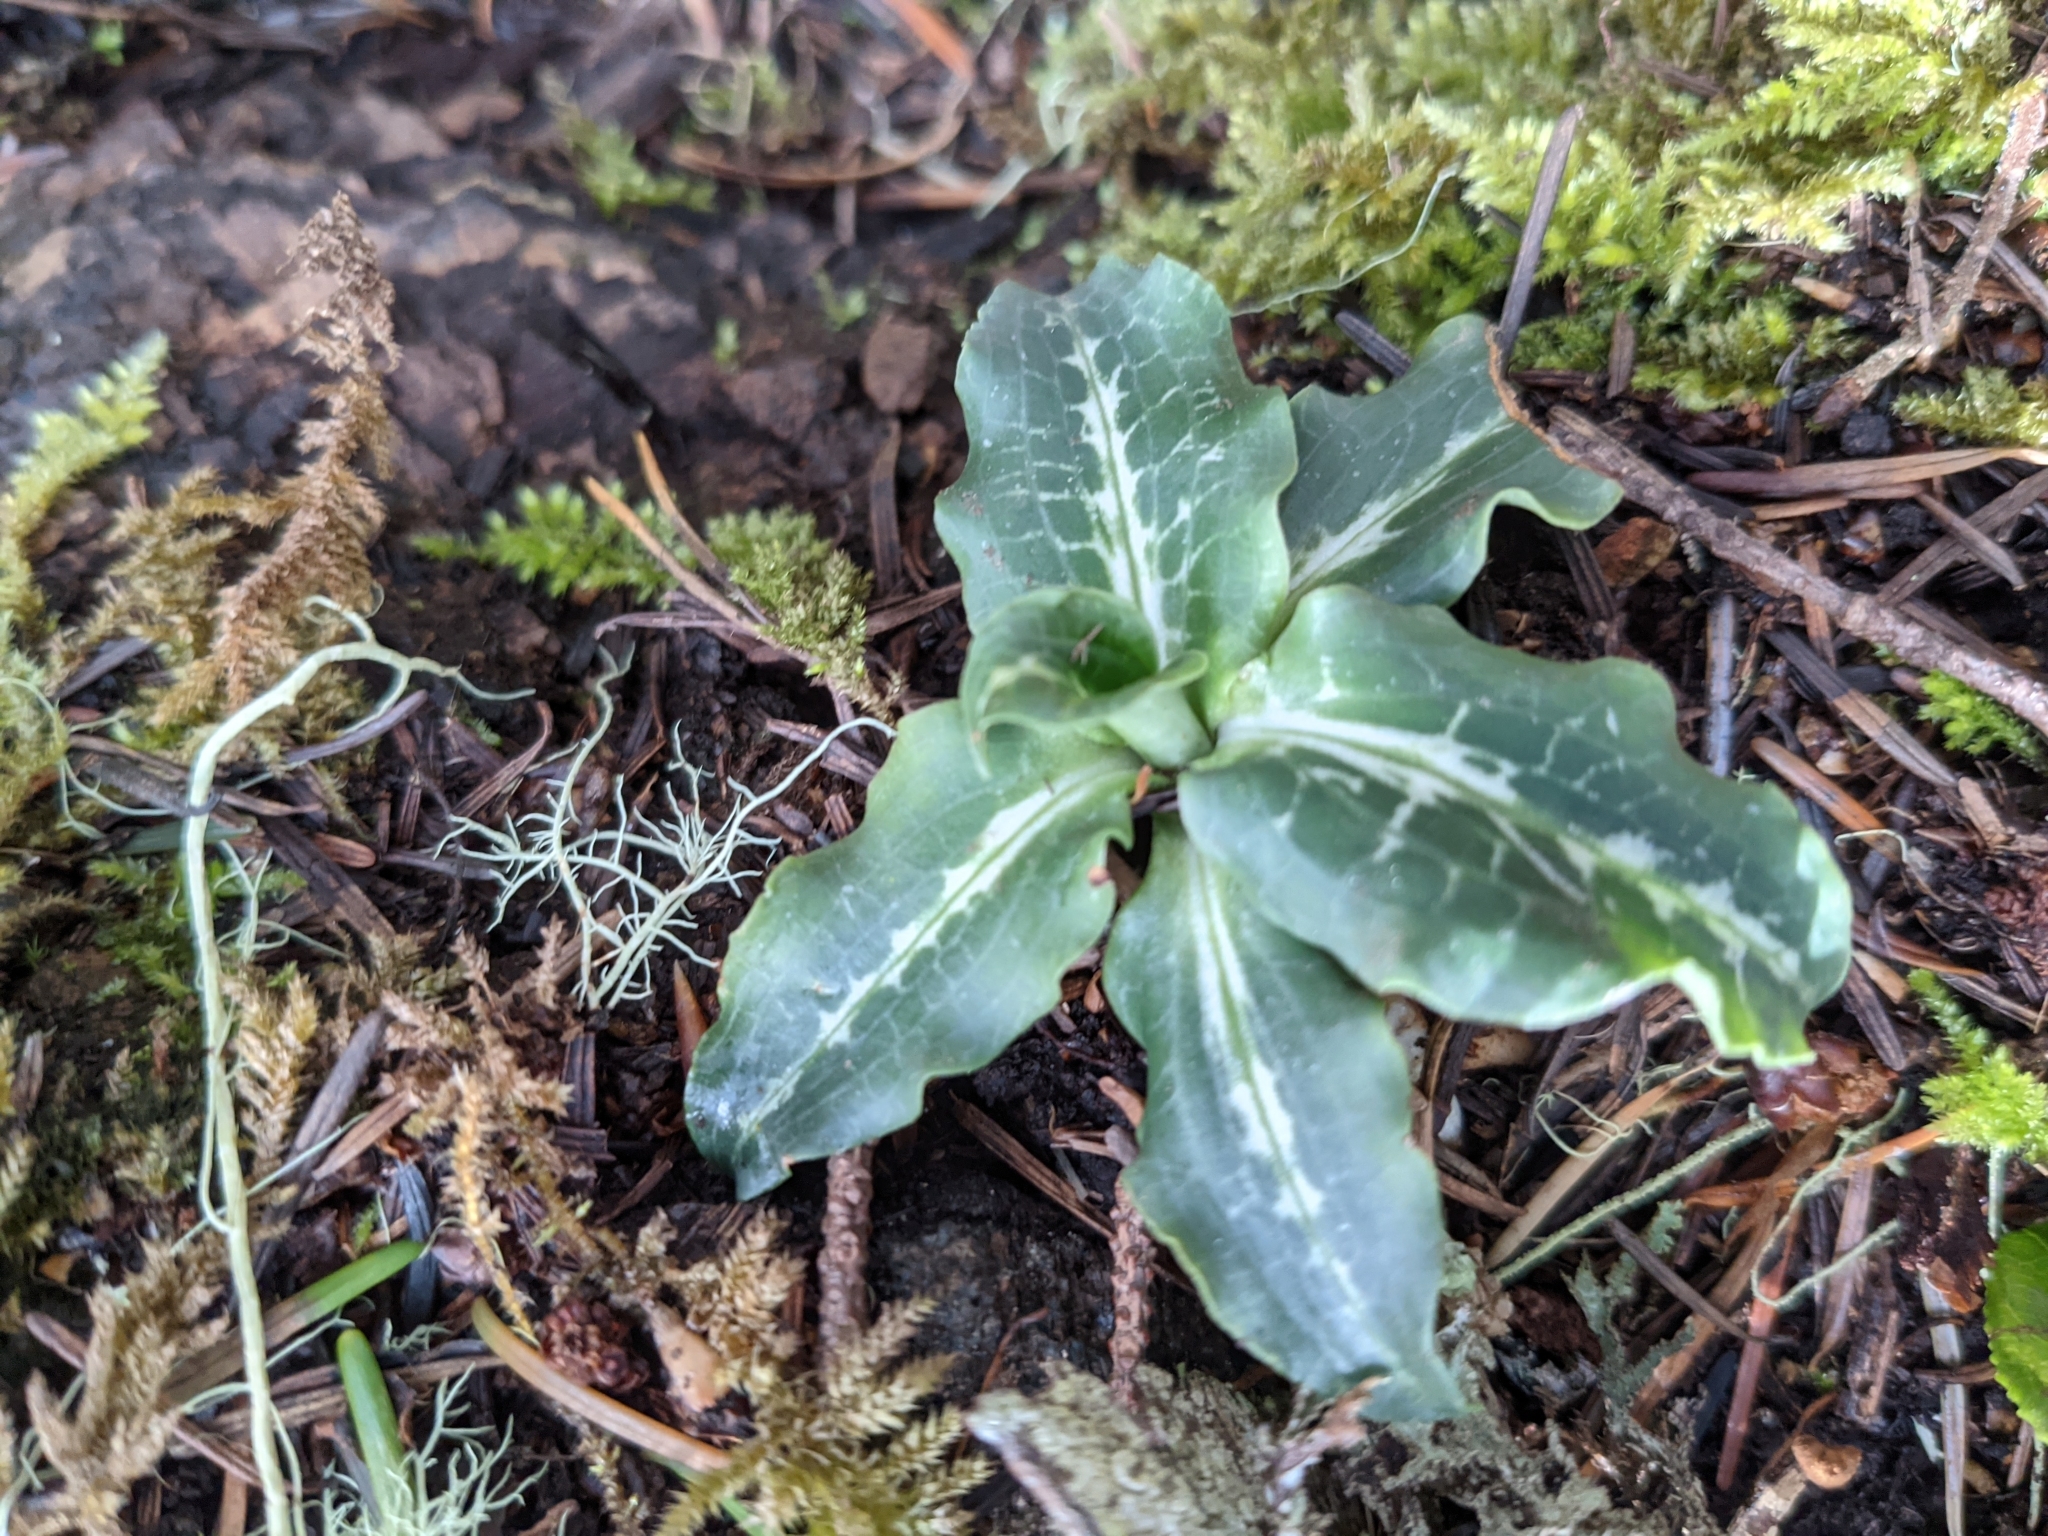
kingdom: Plantae
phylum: Tracheophyta
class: Liliopsida
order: Asparagales
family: Orchidaceae
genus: Goodyera
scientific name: Goodyera oblongifolia
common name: Giant rattlesnake-plantain
